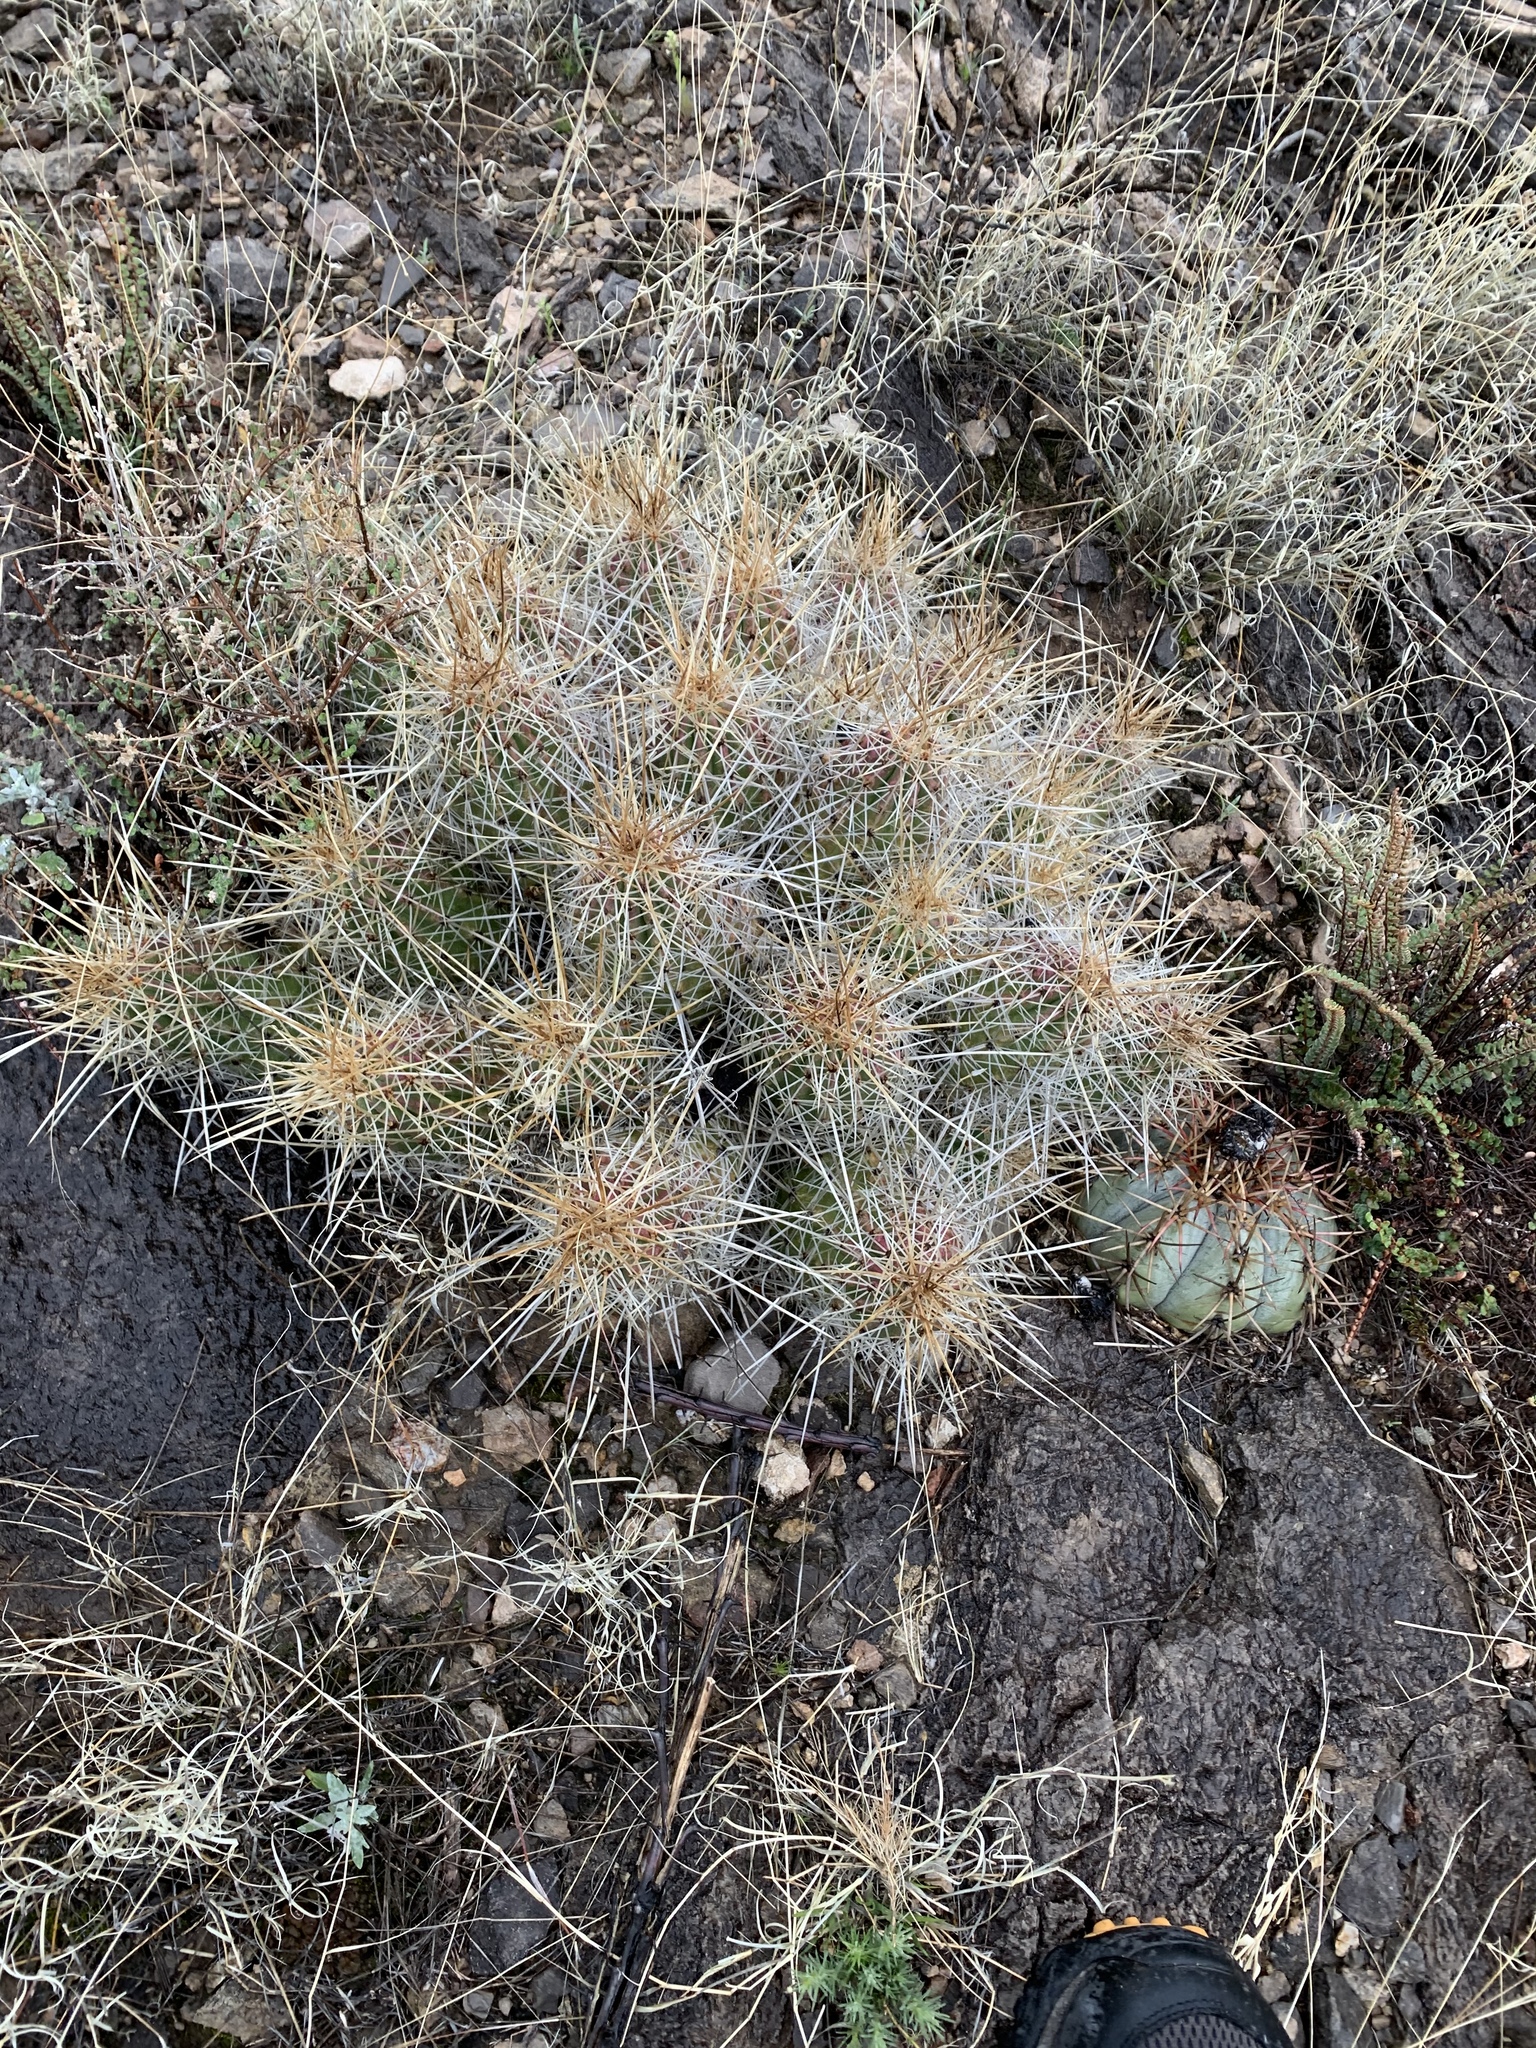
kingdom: Plantae
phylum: Tracheophyta
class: Magnoliopsida
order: Caryophyllales
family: Cactaceae
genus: Echinocereus
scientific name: Echinocereus stramineus
